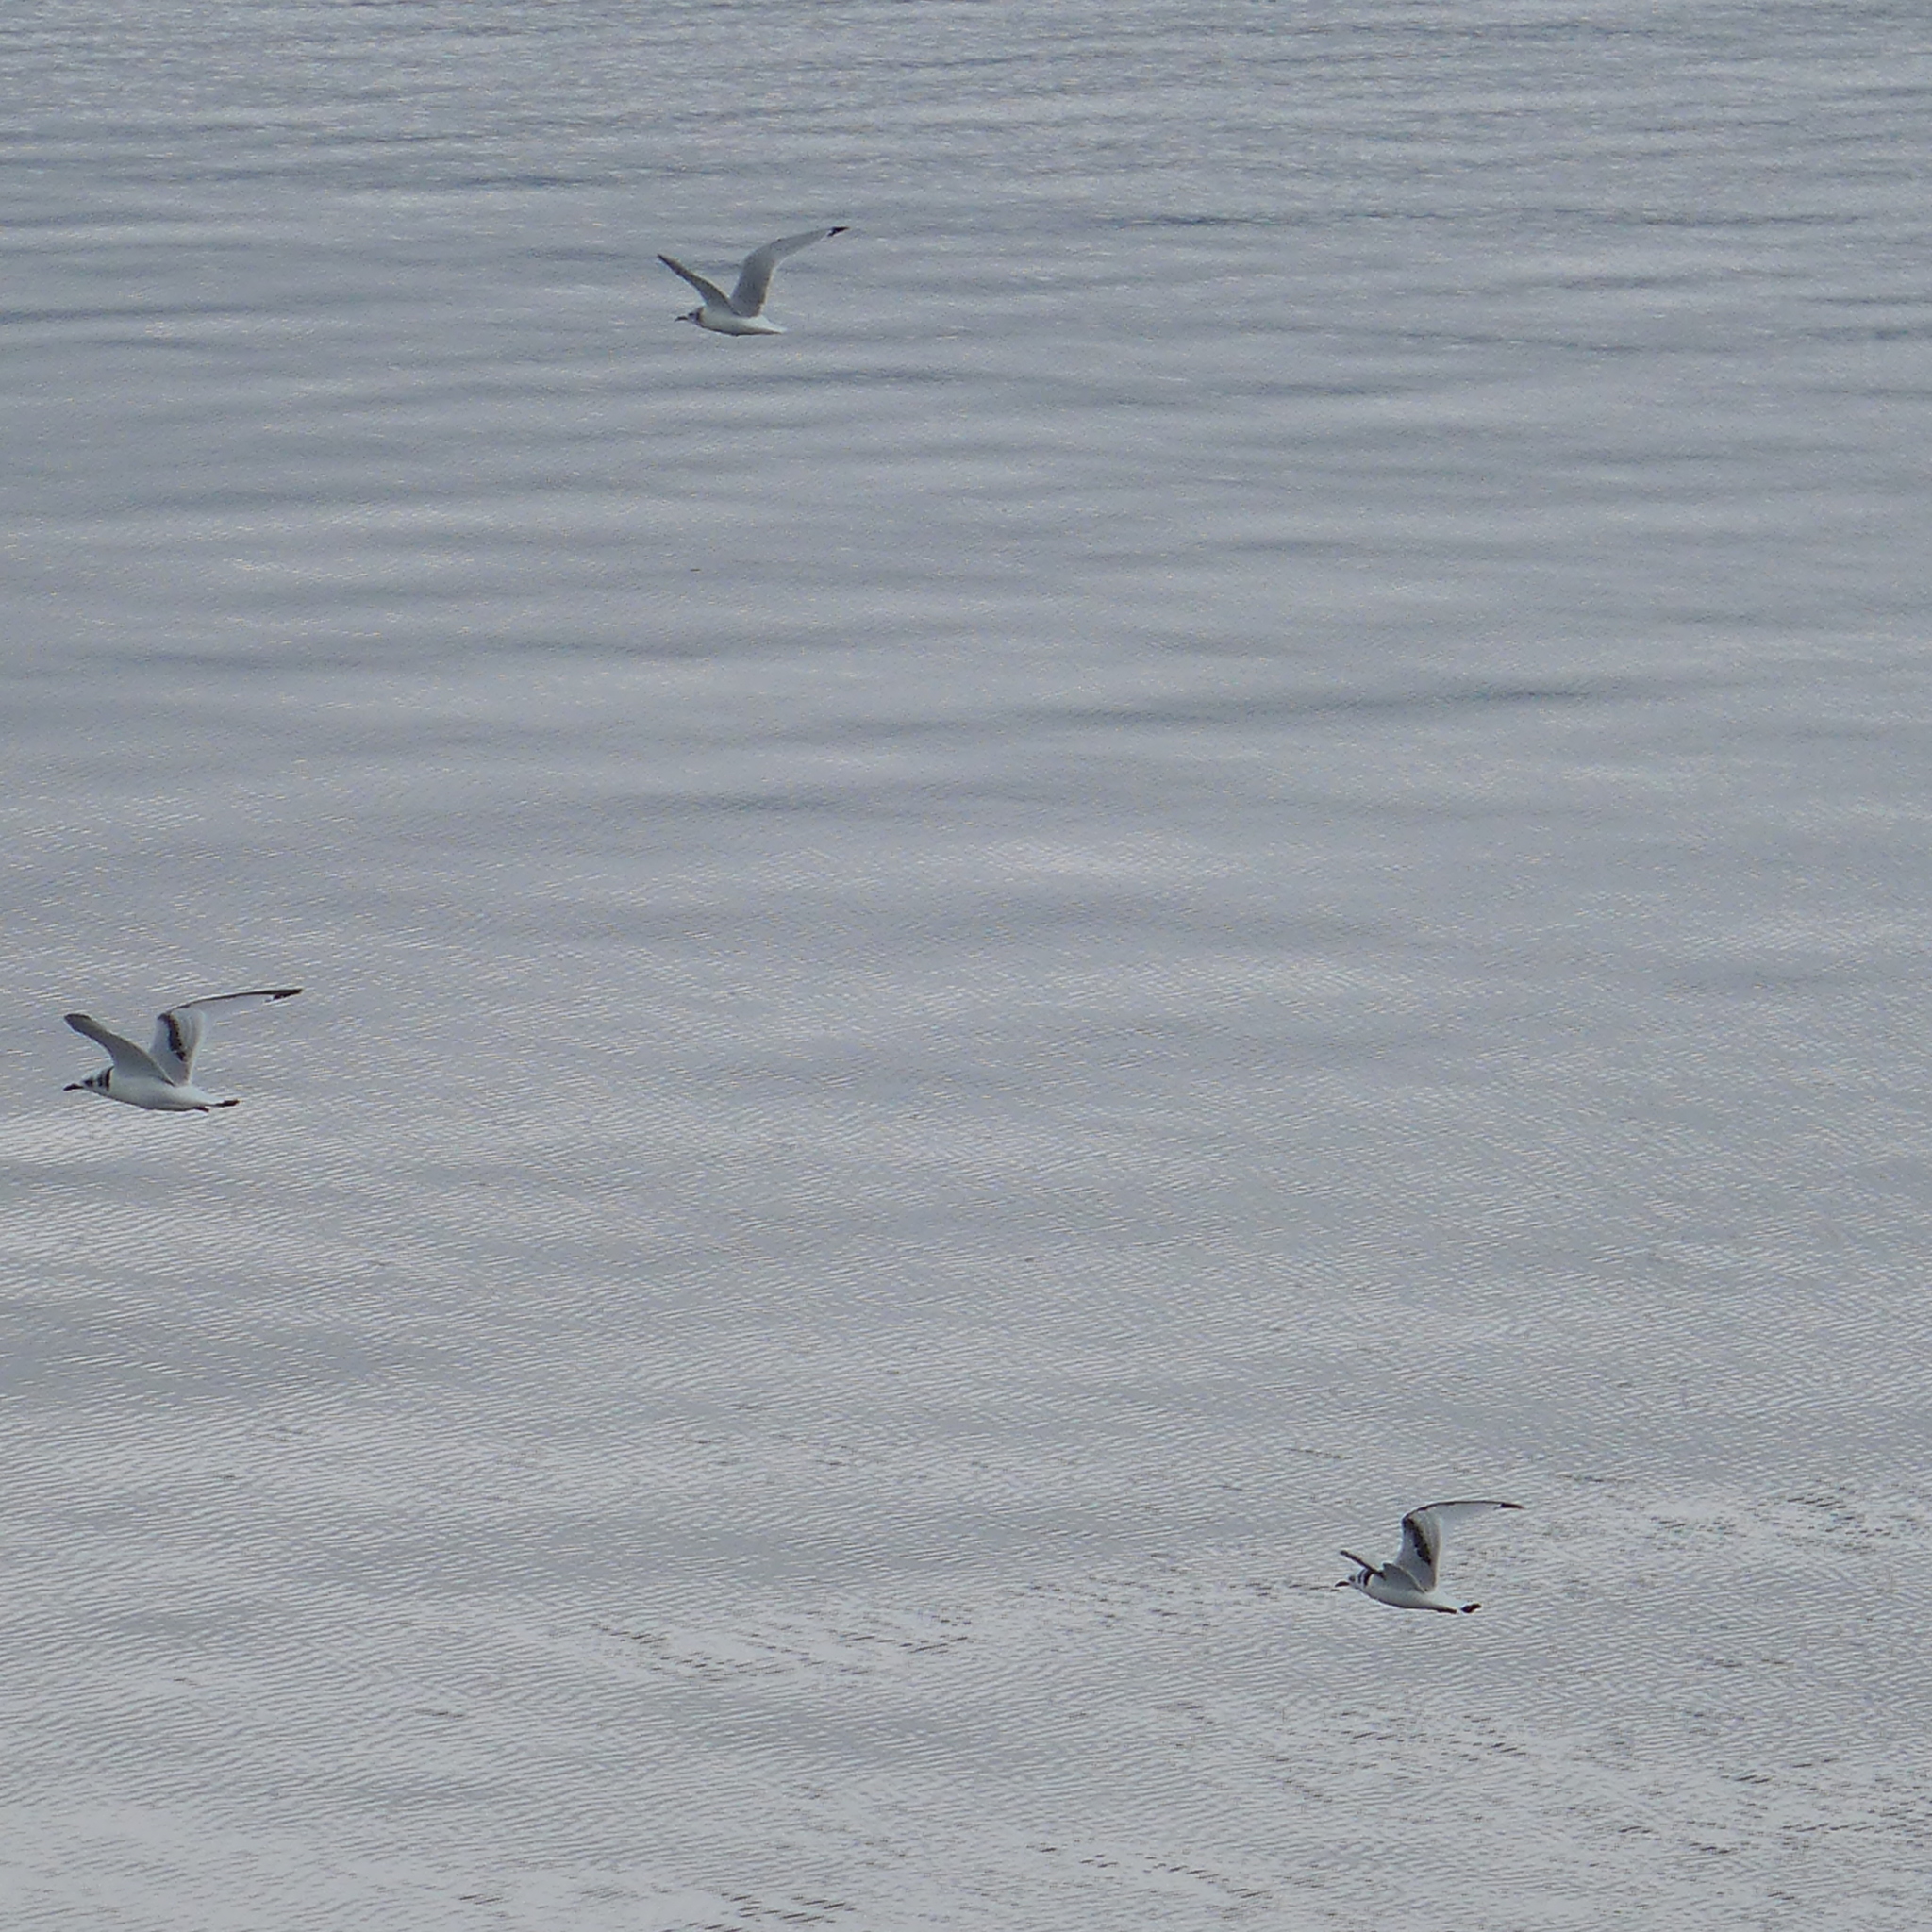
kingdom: Animalia
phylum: Chordata
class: Aves
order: Charadriiformes
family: Laridae
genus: Chroicocephalus
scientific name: Chroicocephalus philadelphia
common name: Bonaparte's gull
